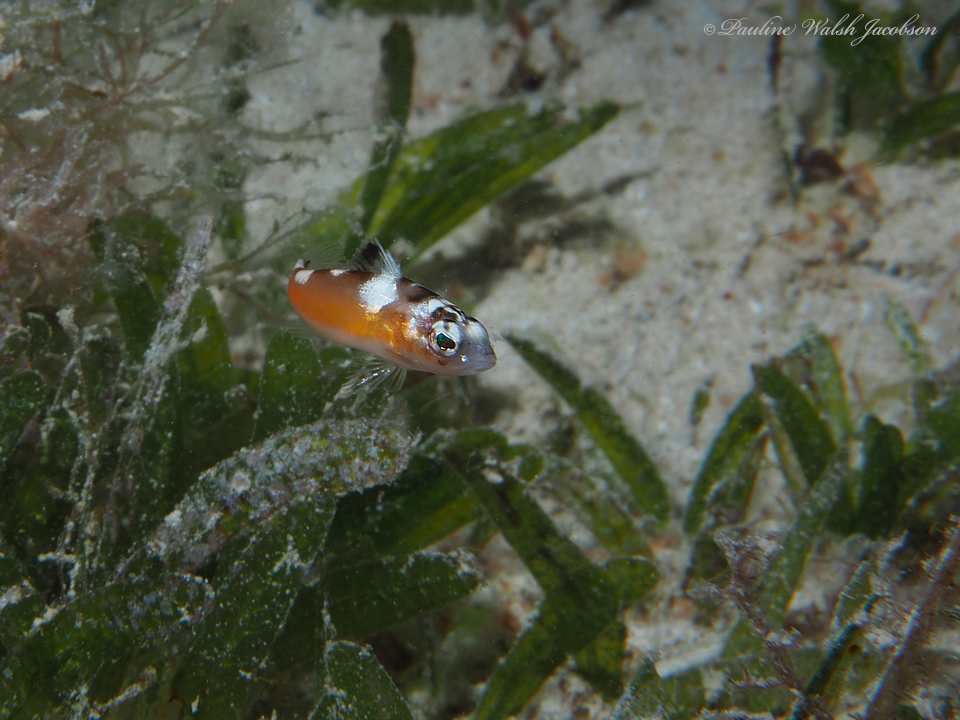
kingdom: Animalia
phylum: Chordata
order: Perciformes
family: Serranidae
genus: Serranus
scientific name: Serranus tabacarius
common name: Tobaccofish
